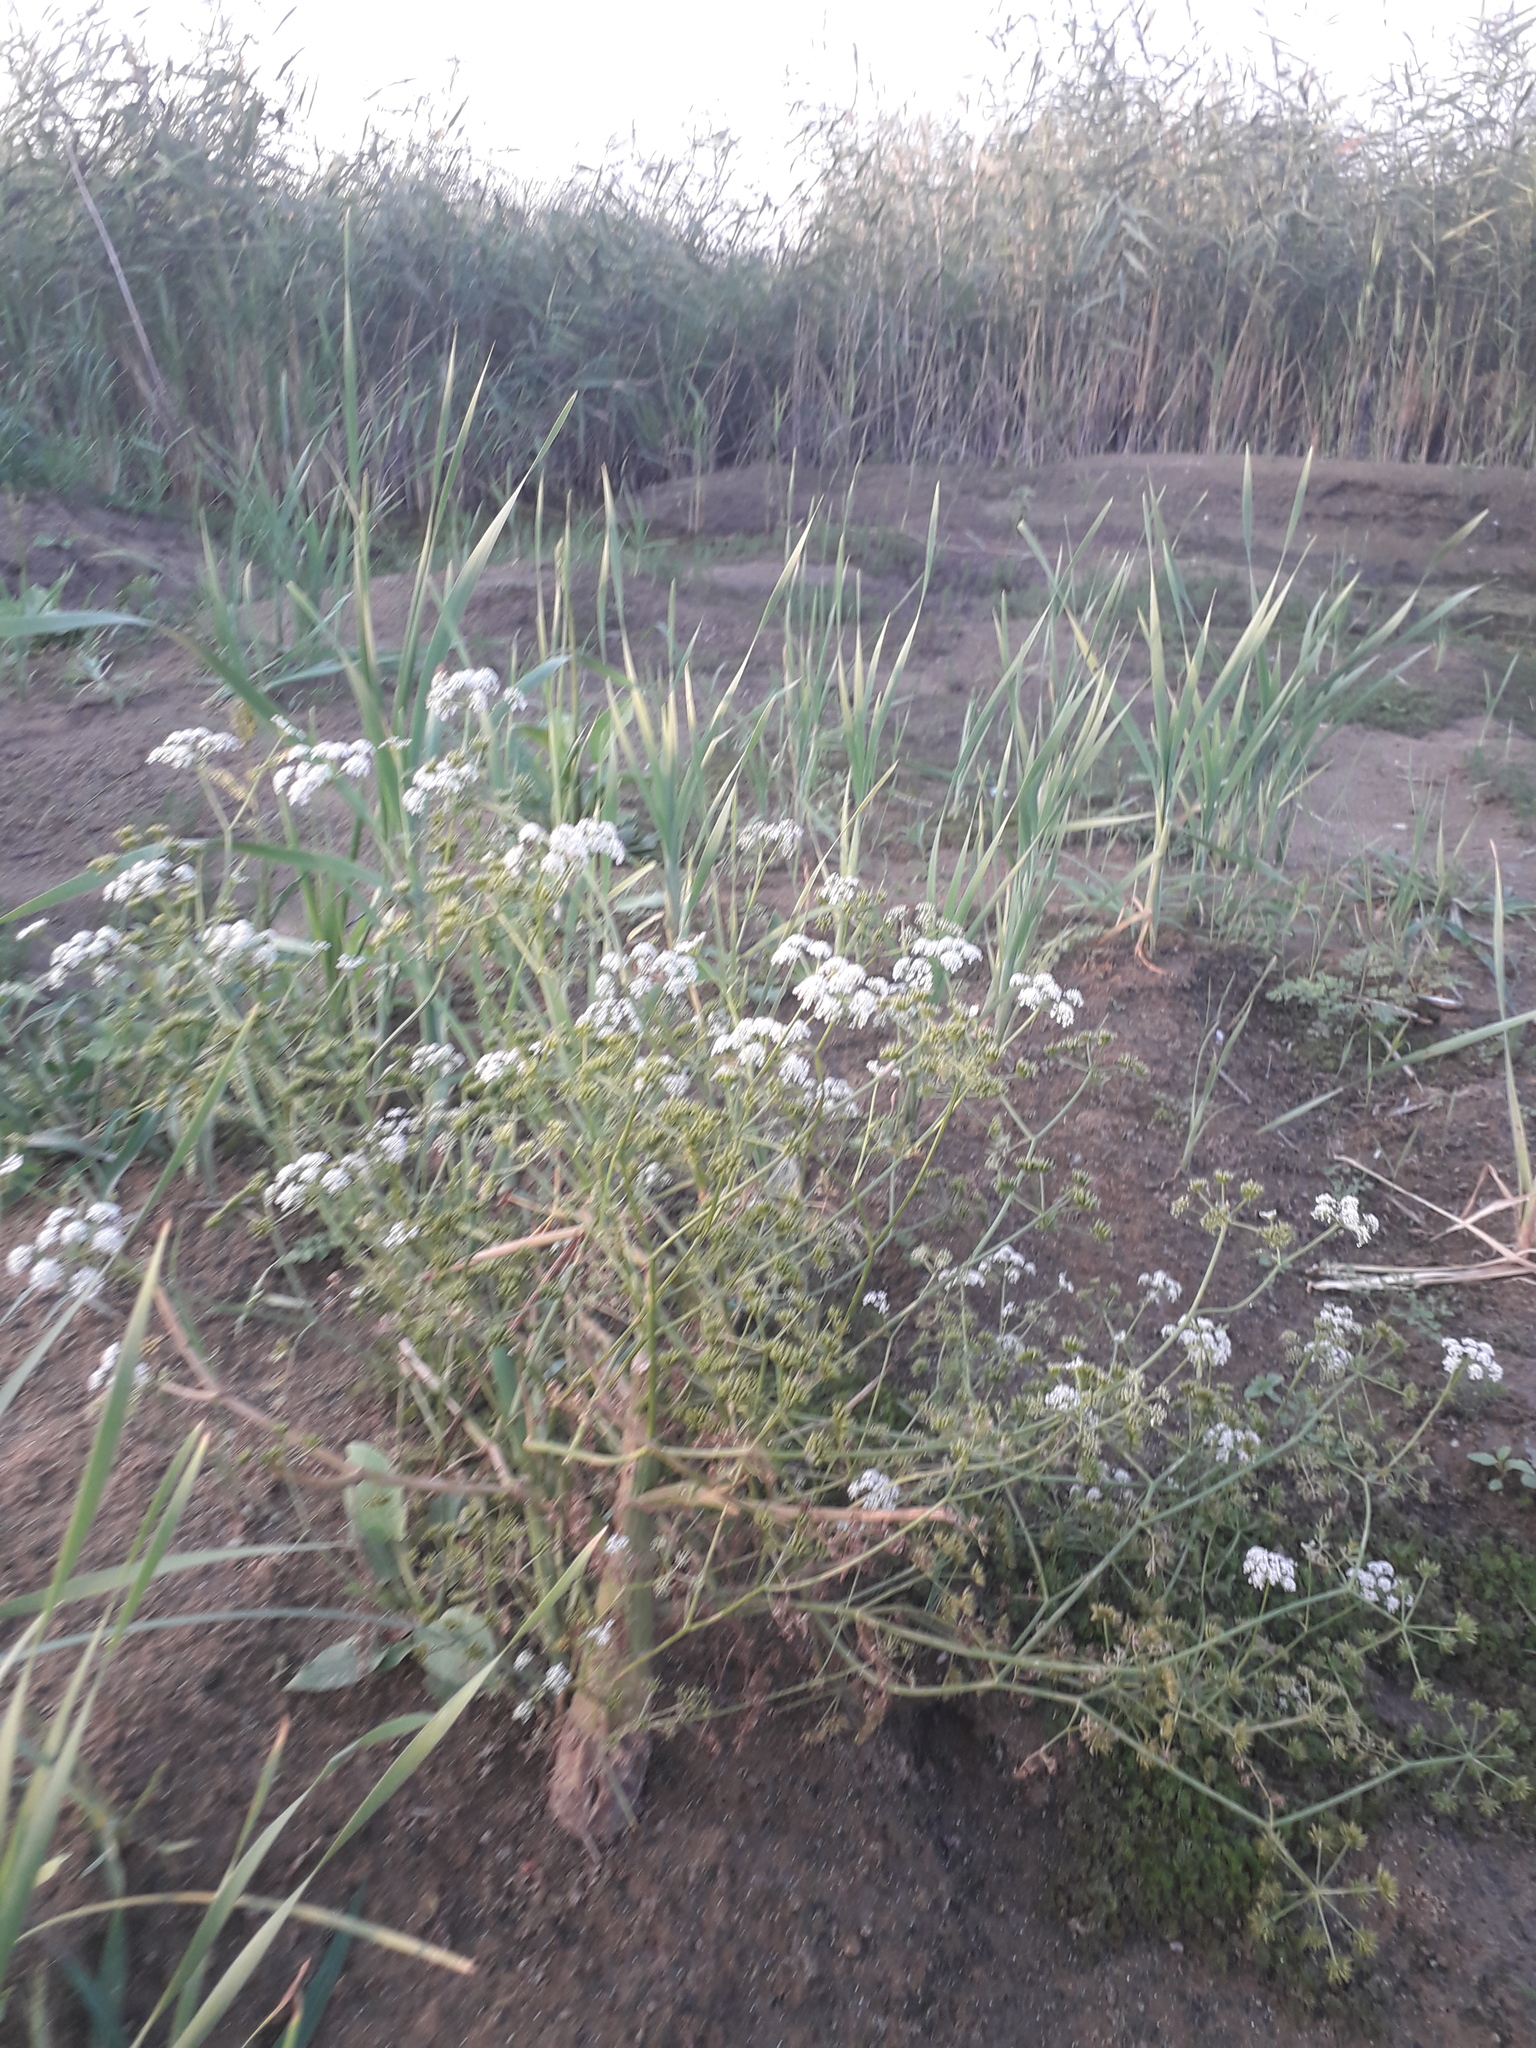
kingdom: Plantae
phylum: Tracheophyta
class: Magnoliopsida
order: Apiales
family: Apiaceae
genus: Oenanthe
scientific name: Oenanthe aquatica
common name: Fine-leaved water-dropwort
